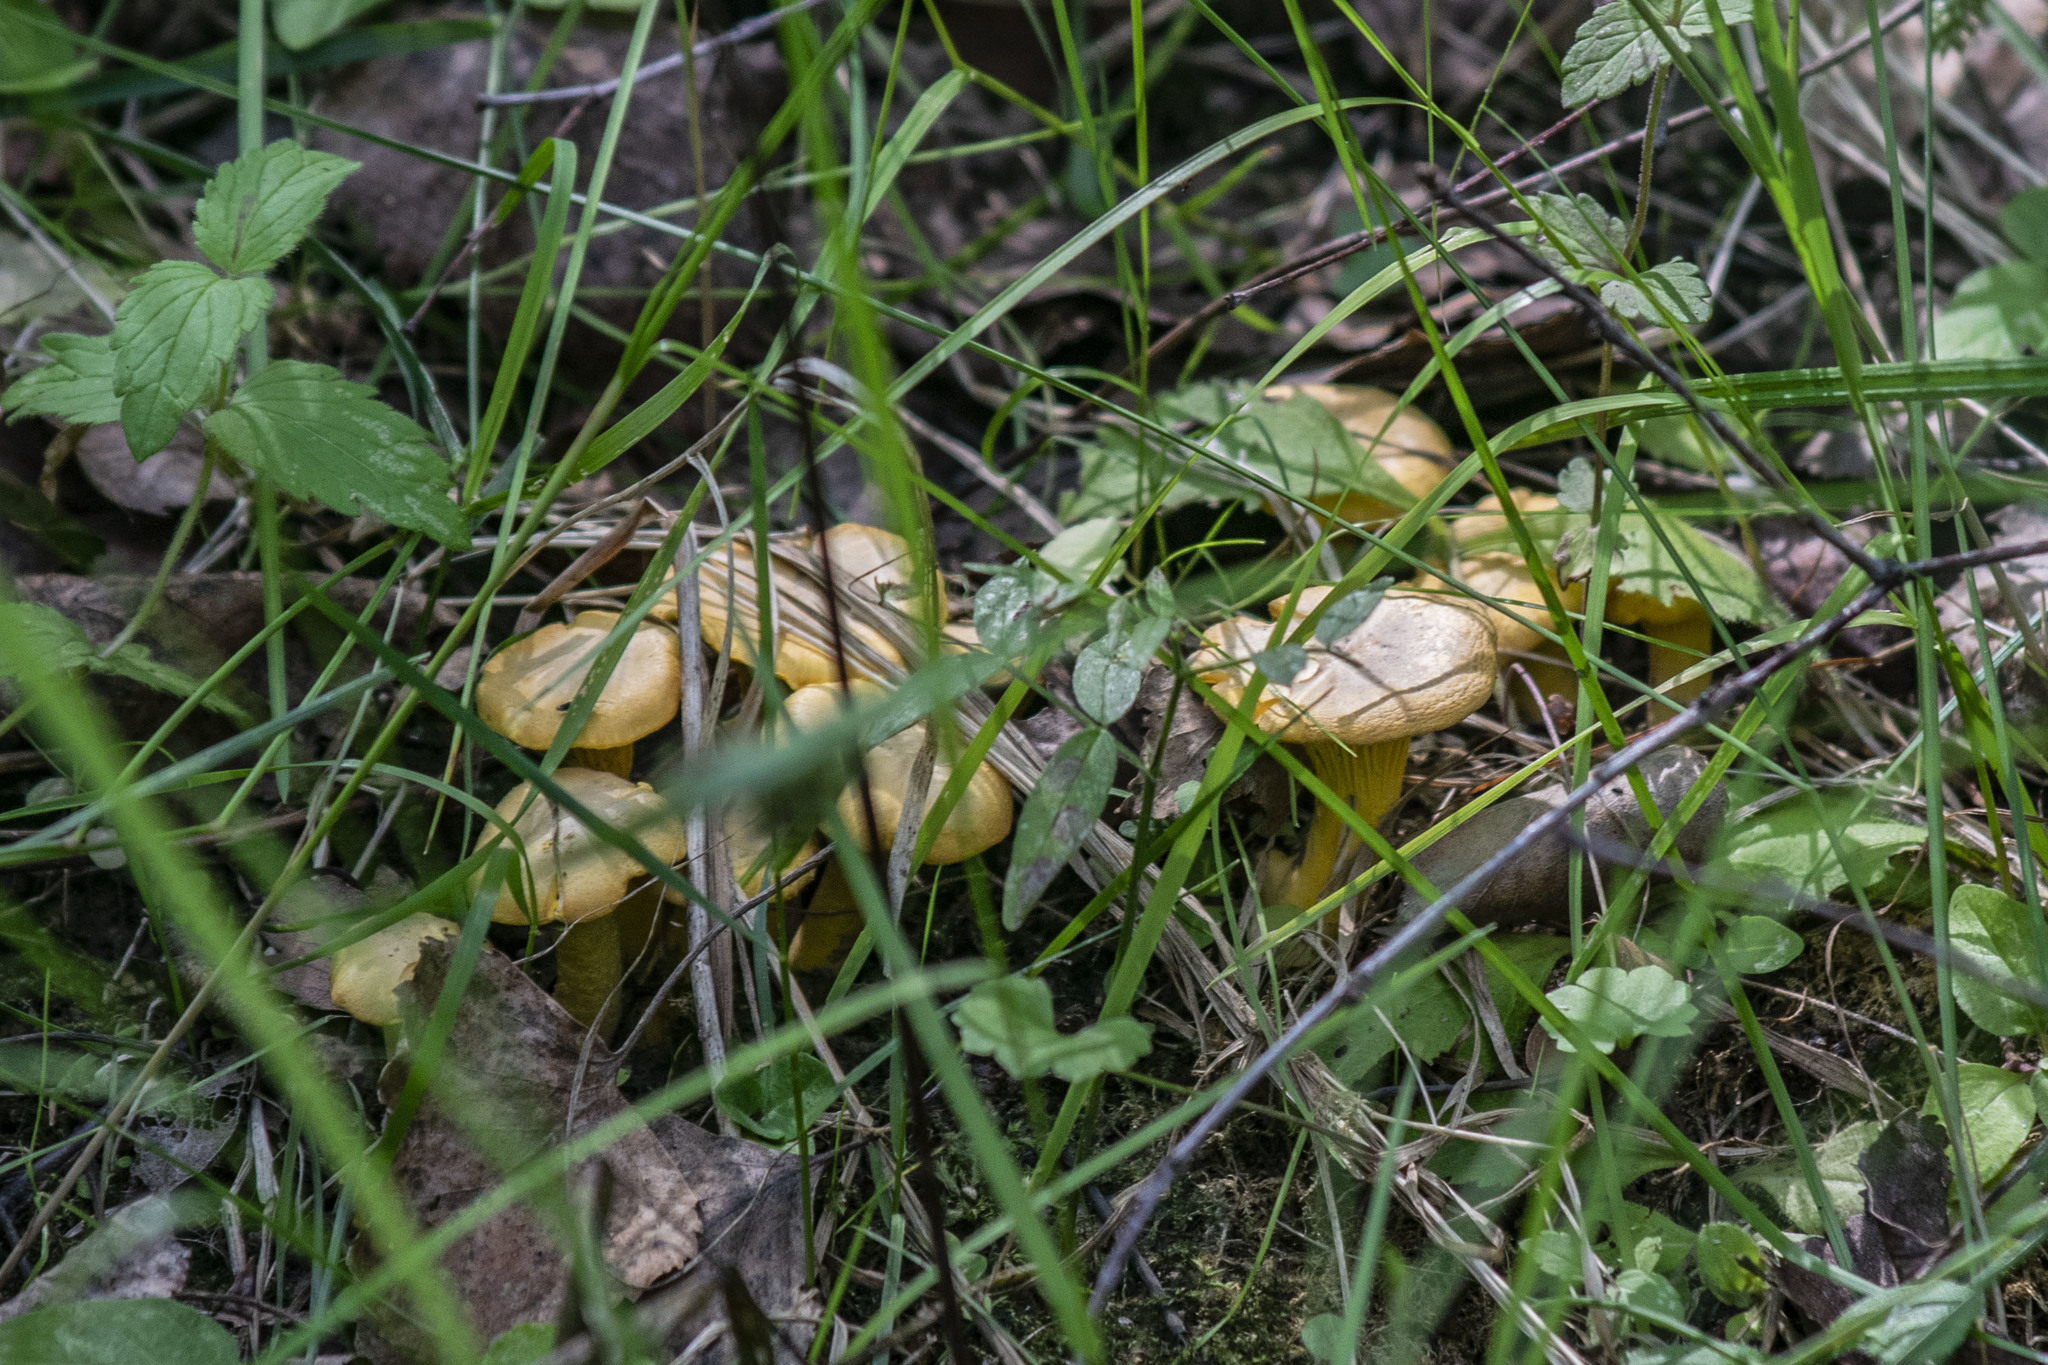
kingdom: Fungi
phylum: Basidiomycota
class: Agaricomycetes
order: Cantharellales
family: Hydnaceae
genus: Cantharellus
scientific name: Cantharellus cibarius
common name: Chanterelle
